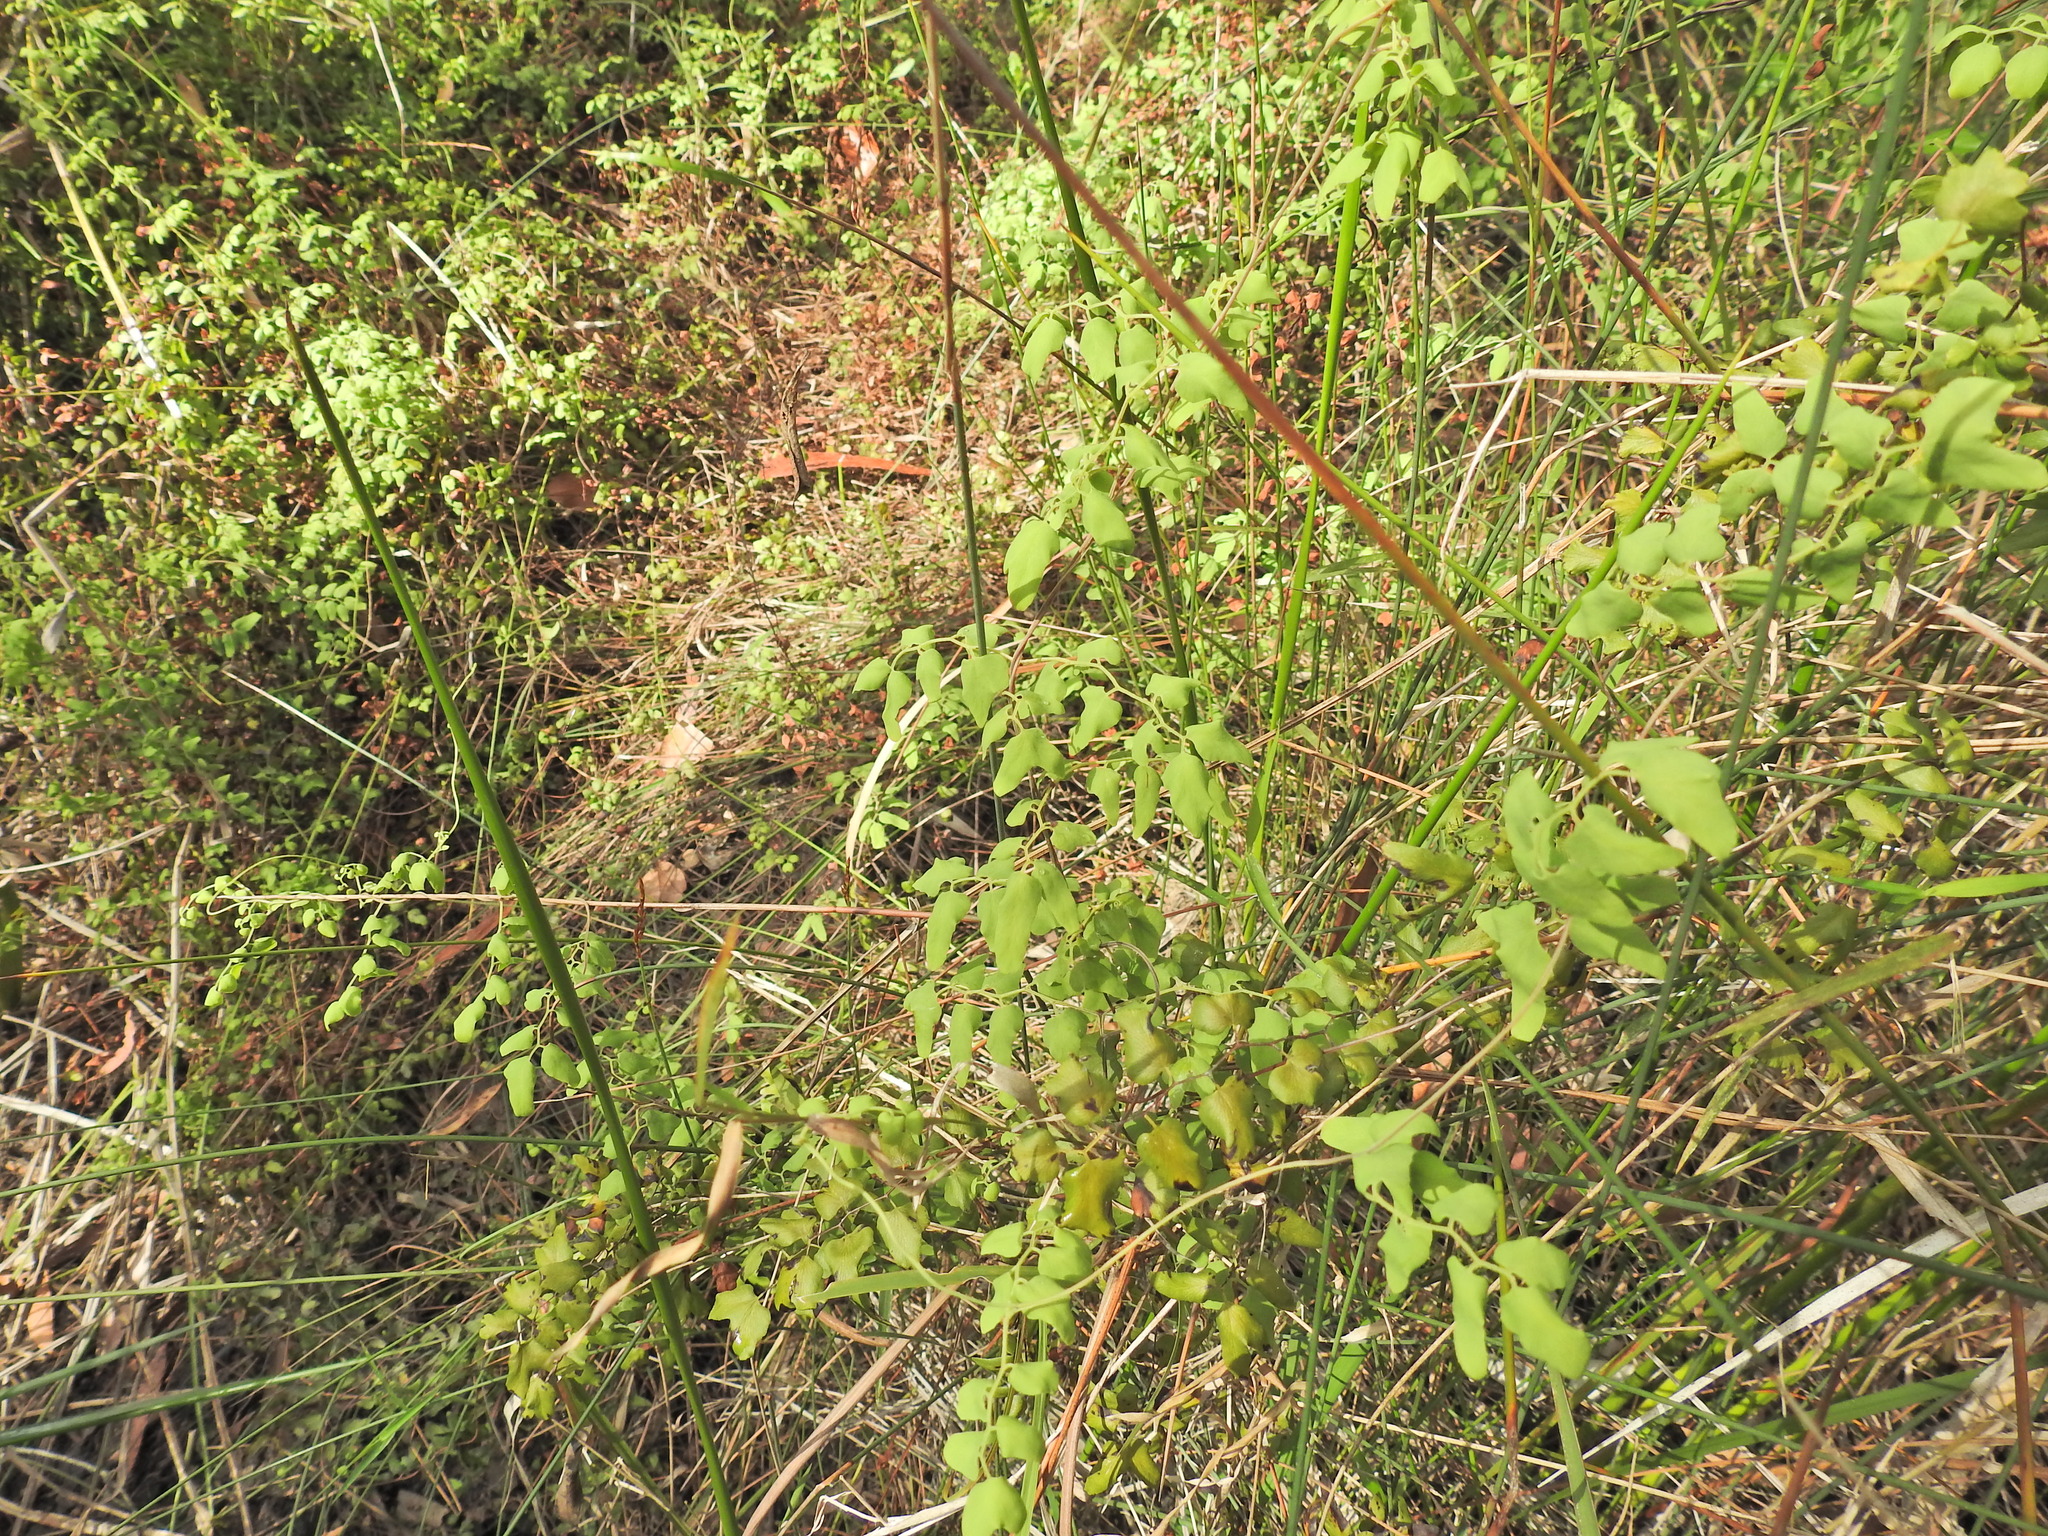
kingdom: Plantae
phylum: Tracheophyta
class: Polypodiopsida
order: Schizaeales
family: Lygodiaceae
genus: Lygodium
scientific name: Lygodium microphyllum
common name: Small-leaf climbing fern
